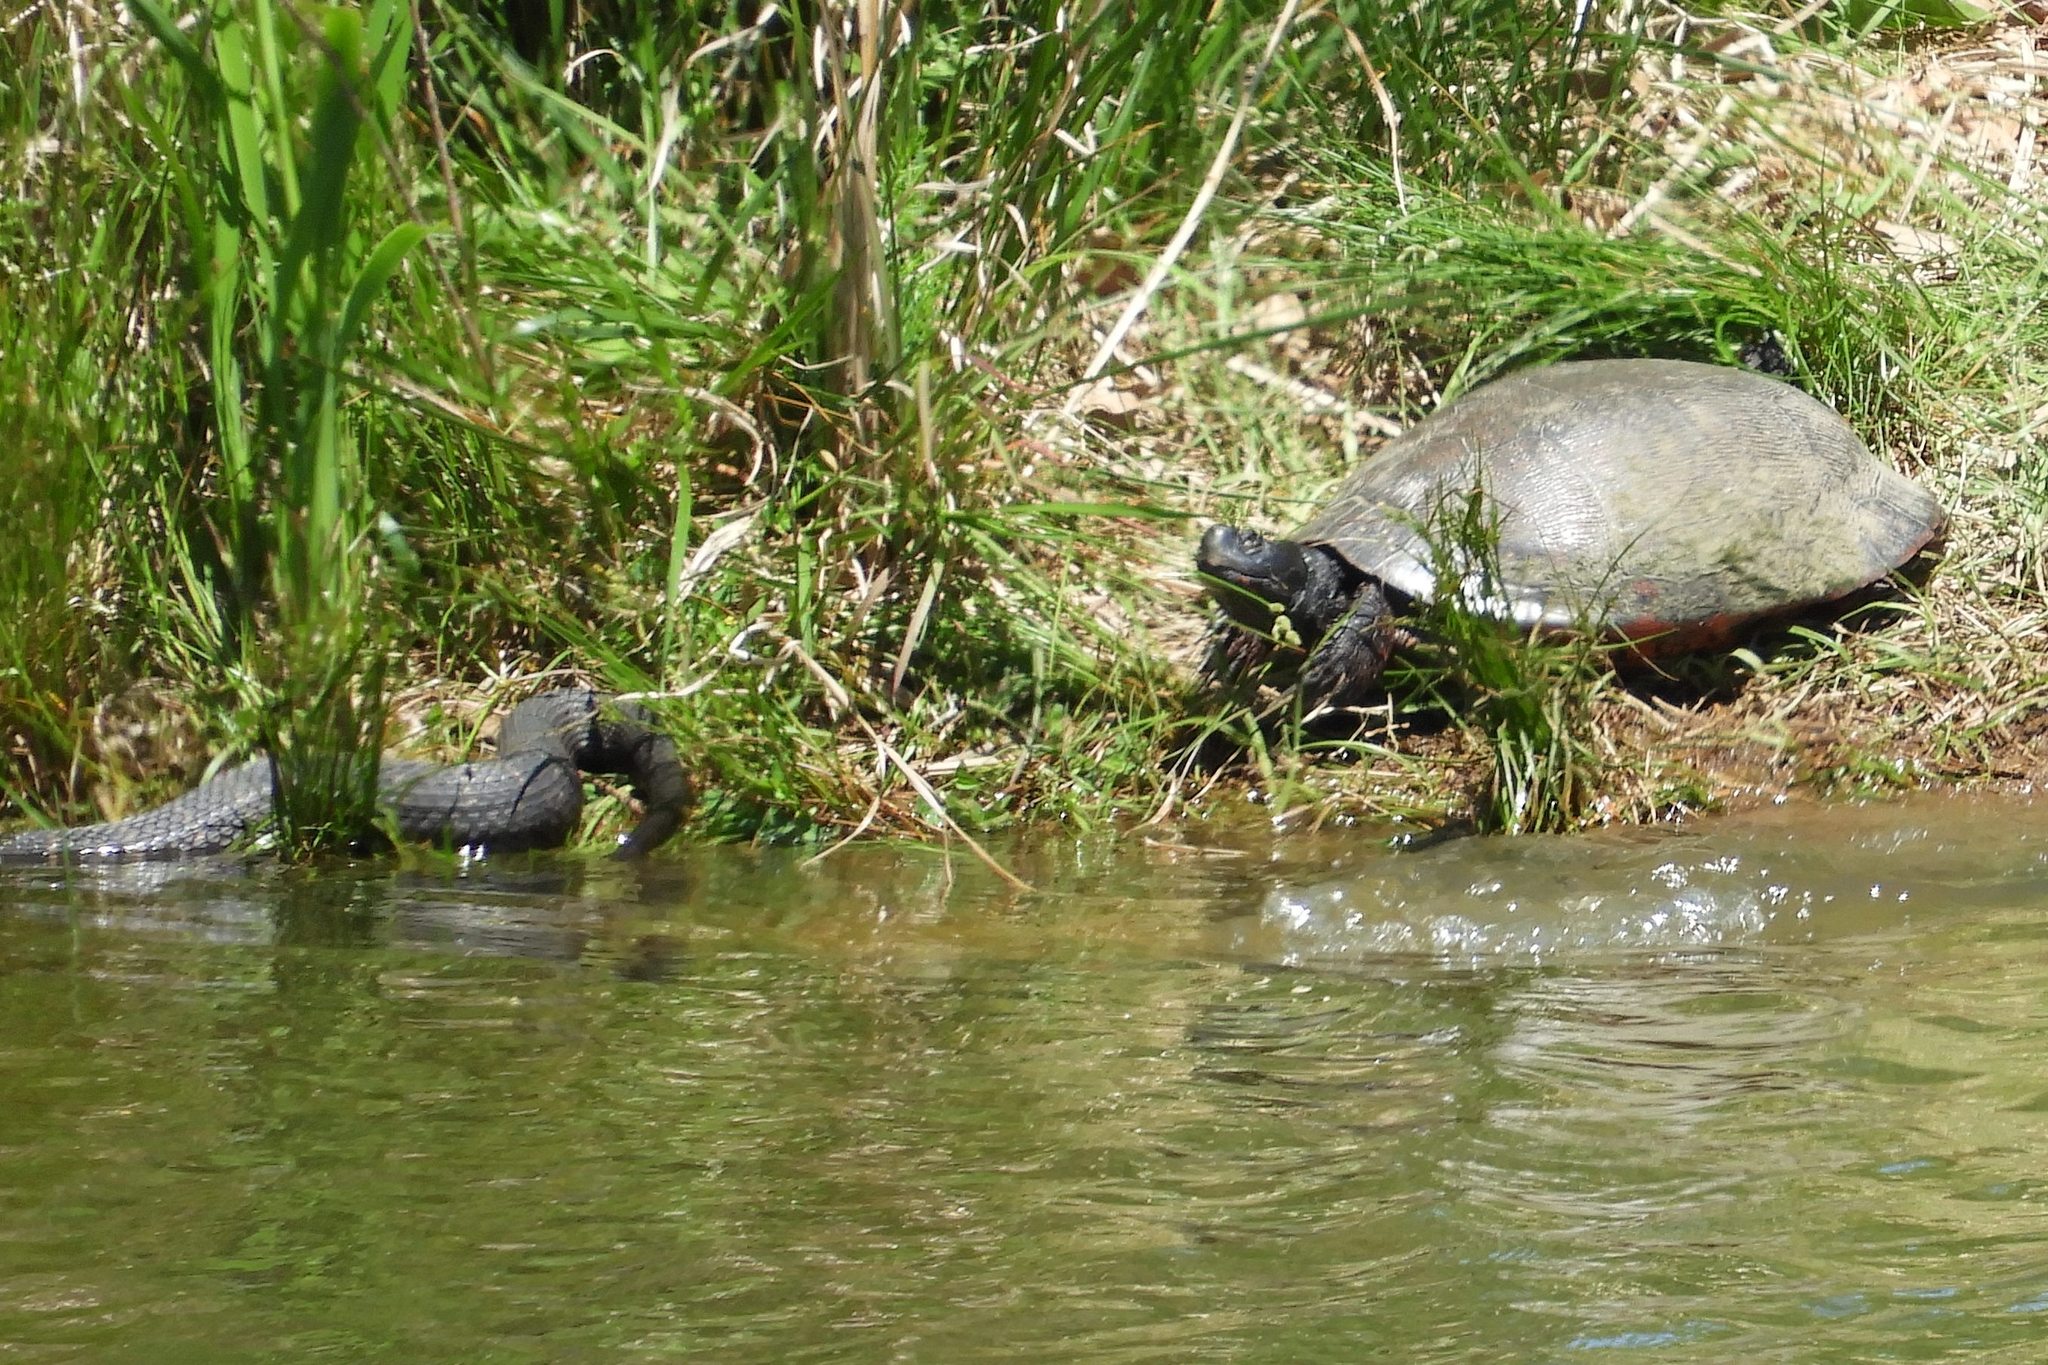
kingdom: Animalia
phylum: Chordata
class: Squamata
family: Colubridae
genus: Nerodia
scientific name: Nerodia sipedon
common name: Northern water snake
